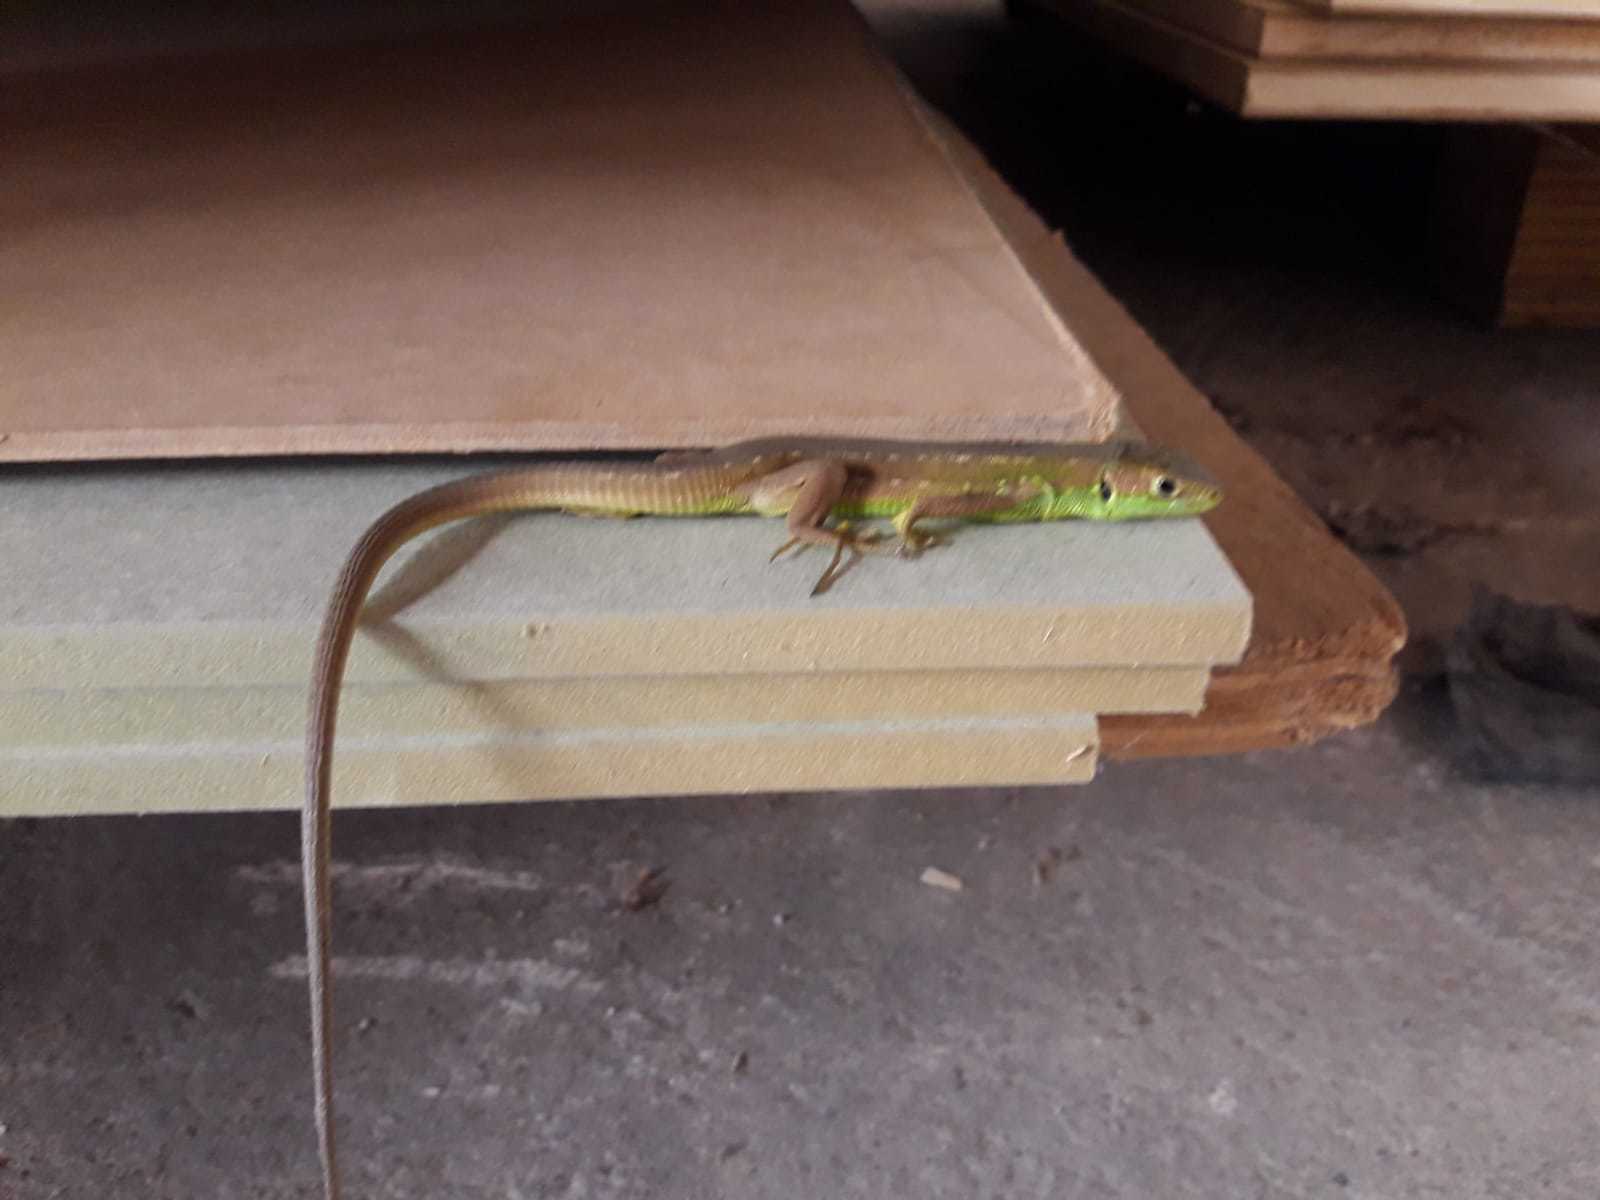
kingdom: Animalia
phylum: Chordata
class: Squamata
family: Lacertidae
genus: Lacerta
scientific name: Lacerta bilineata
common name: Western green lizard
